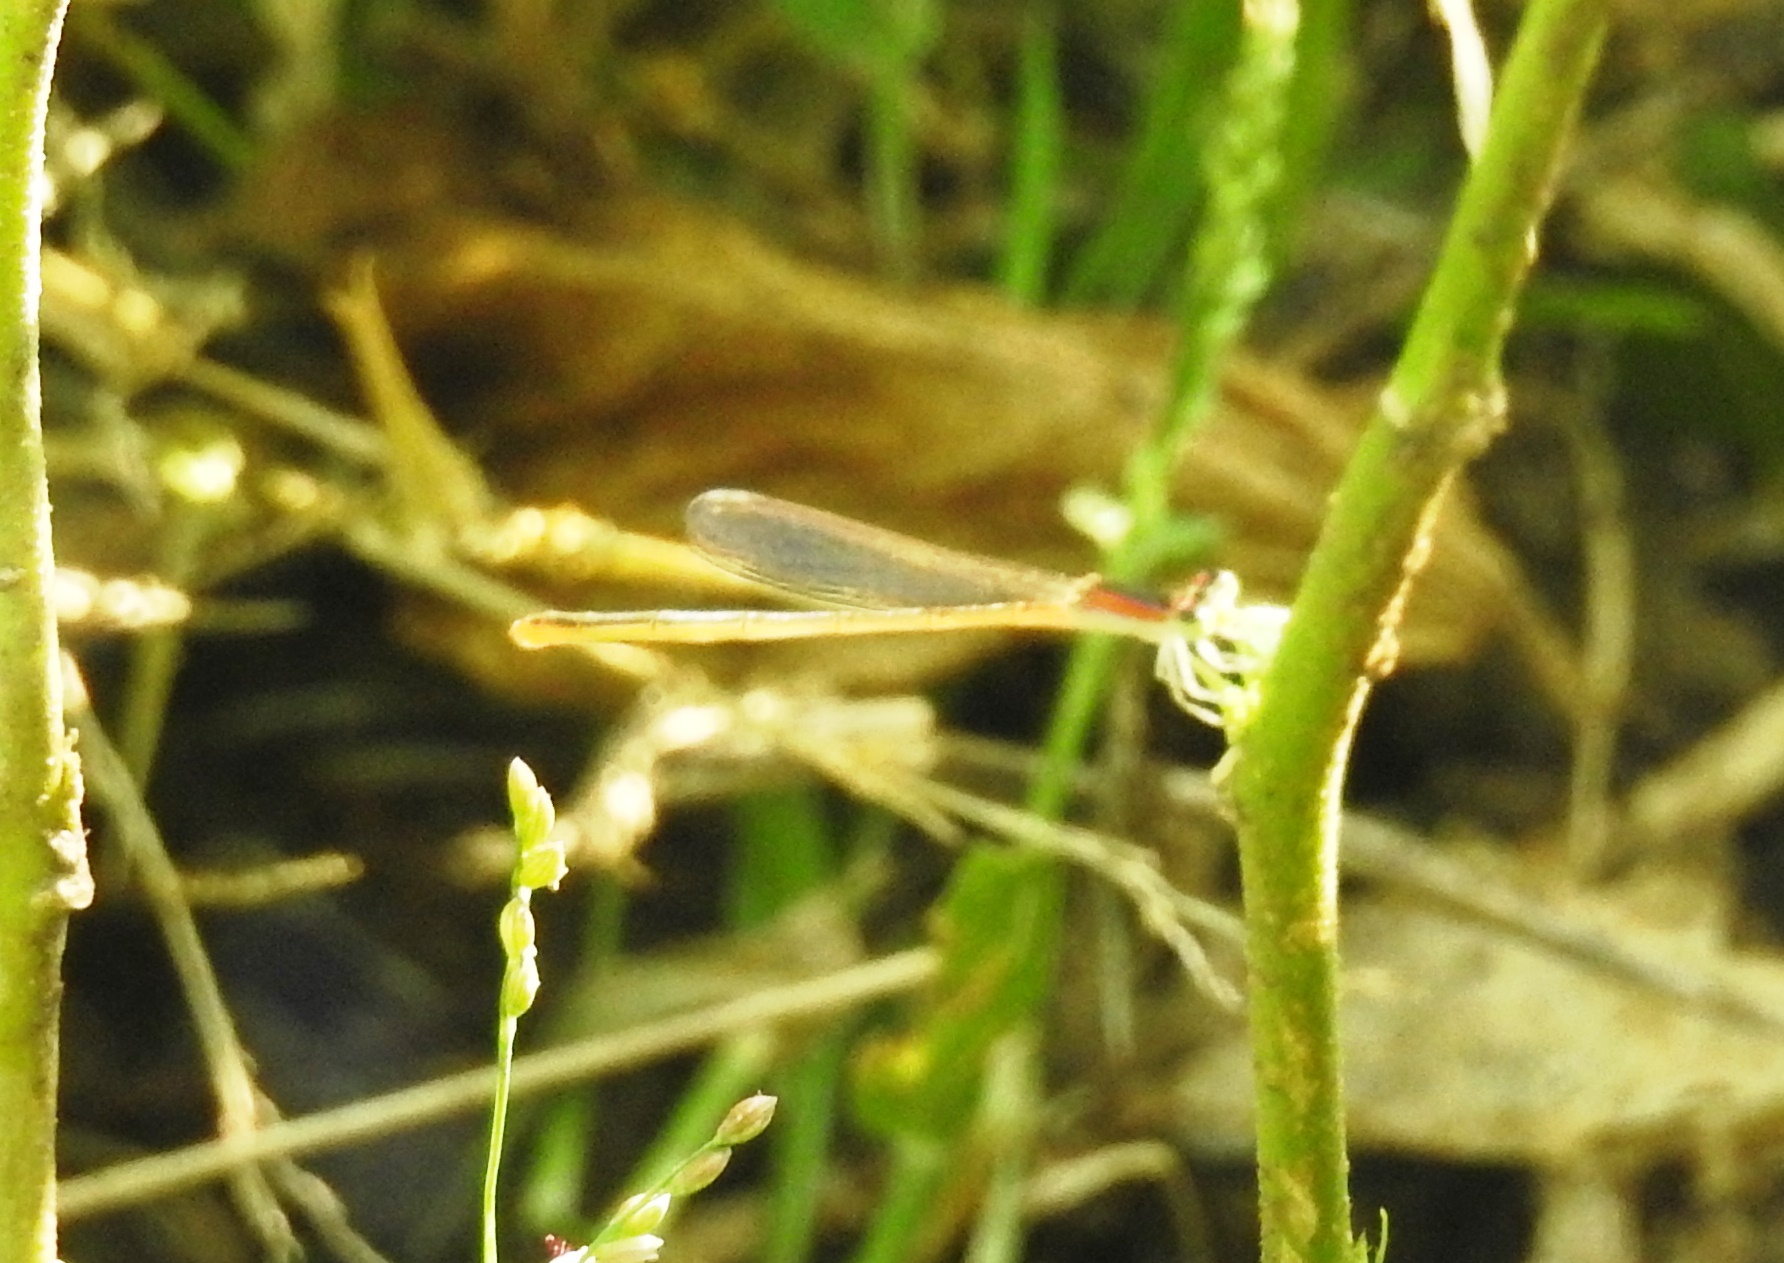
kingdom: Animalia
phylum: Arthropoda
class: Insecta
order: Odonata
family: Coenagrionidae
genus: Agriocnemis
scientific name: Agriocnemis pygmaea
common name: Pygmy wisp
